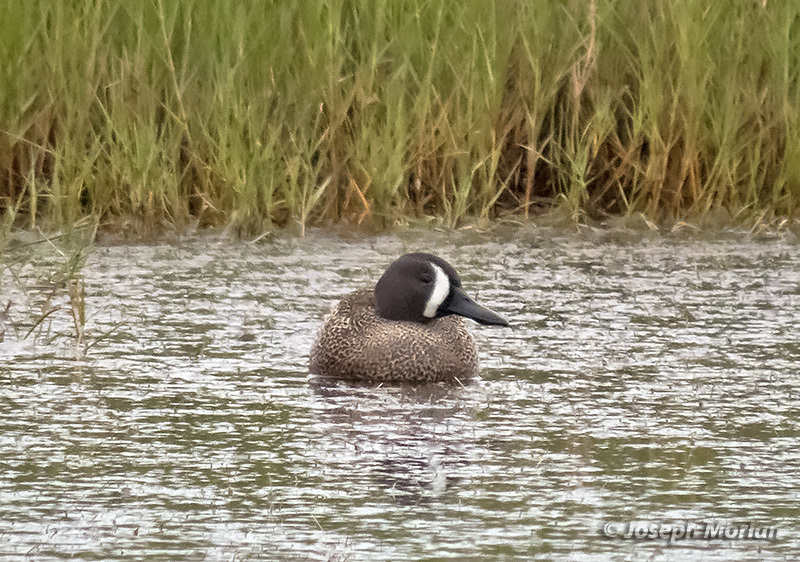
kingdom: Animalia
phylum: Chordata
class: Aves
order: Anseriformes
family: Anatidae
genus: Spatula
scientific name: Spatula discors
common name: Blue-winged teal
